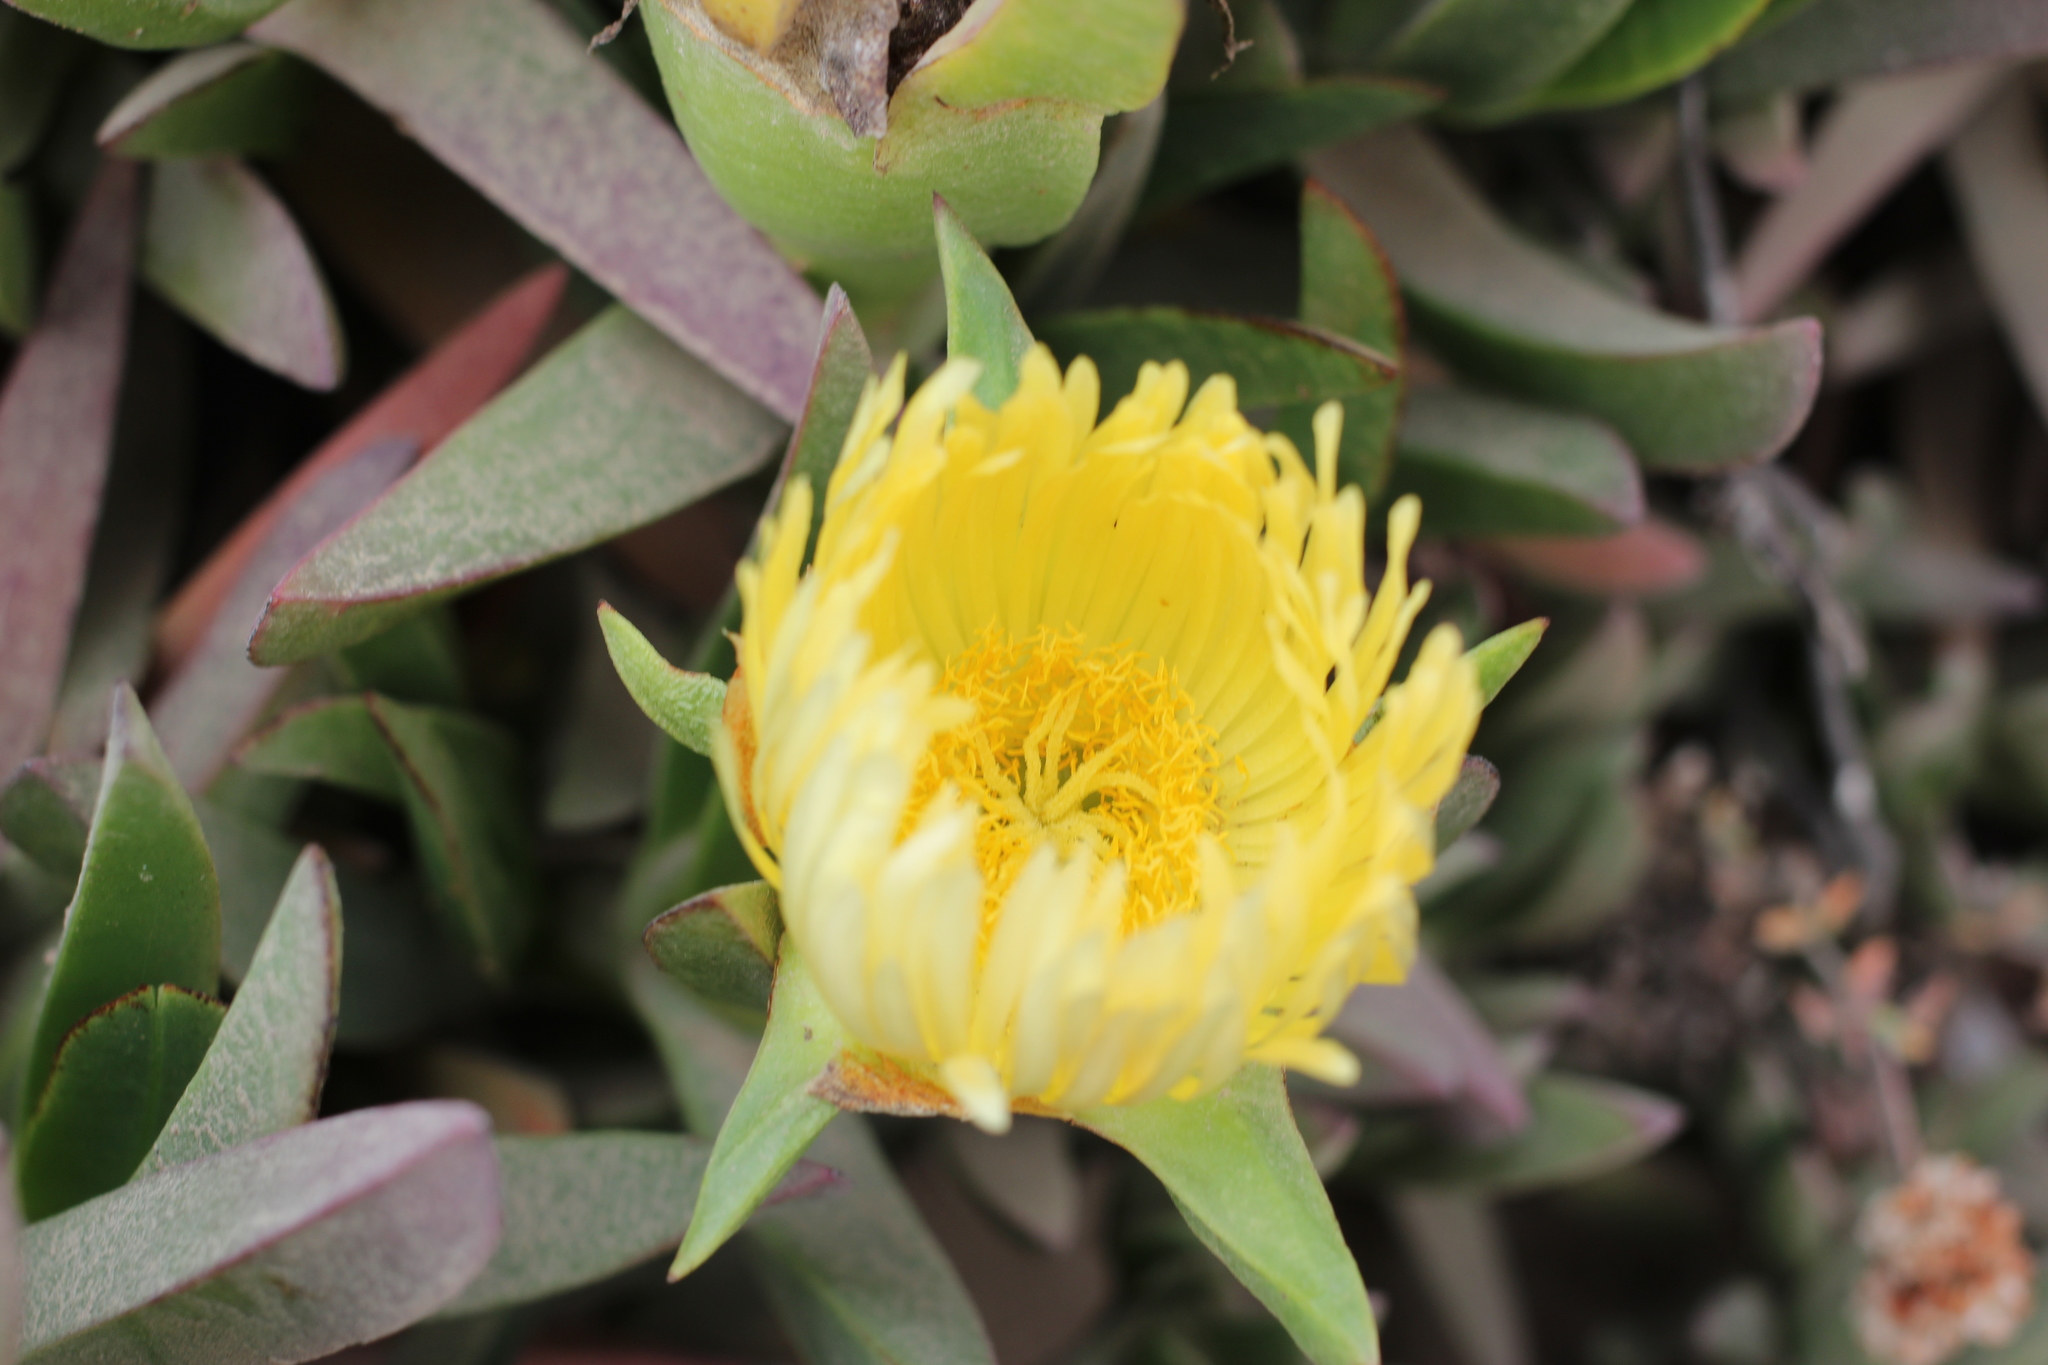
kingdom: Plantae
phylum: Tracheophyta
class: Magnoliopsida
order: Caryophyllales
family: Aizoaceae
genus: Carpobrotus
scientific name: Carpobrotus edulis
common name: Hottentot-fig
